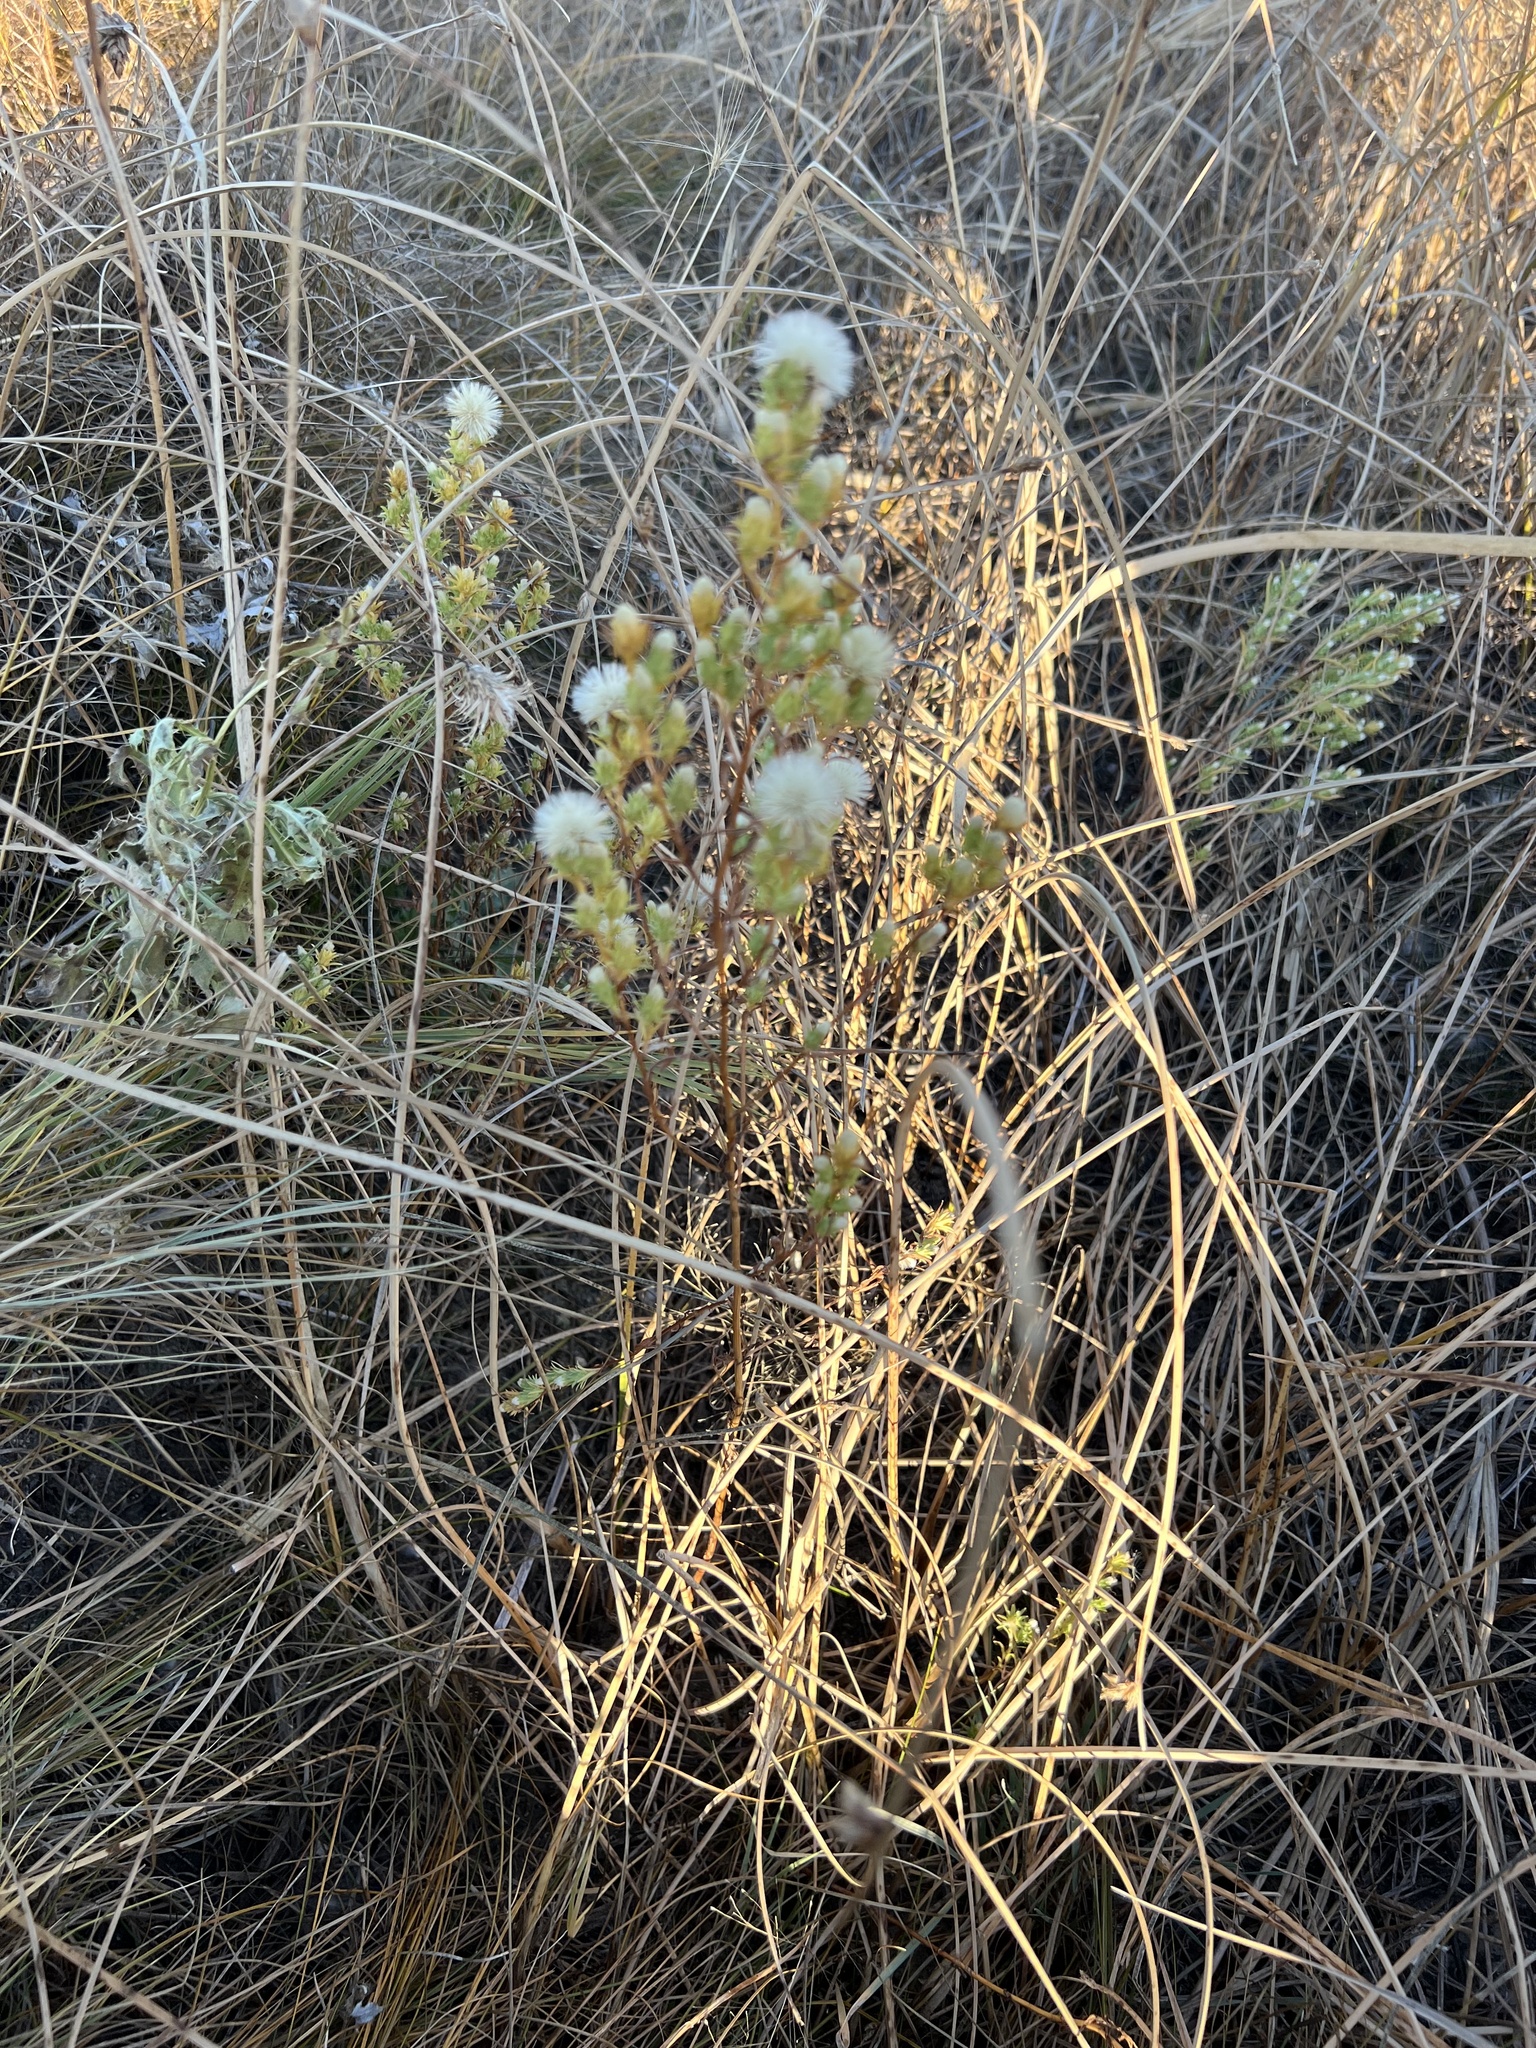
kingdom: Plantae
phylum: Tracheophyta
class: Magnoliopsida
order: Asterales
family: Asteraceae
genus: Symphyotrichum
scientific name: Symphyotrichum ciliatum
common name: Rayless annual aster
